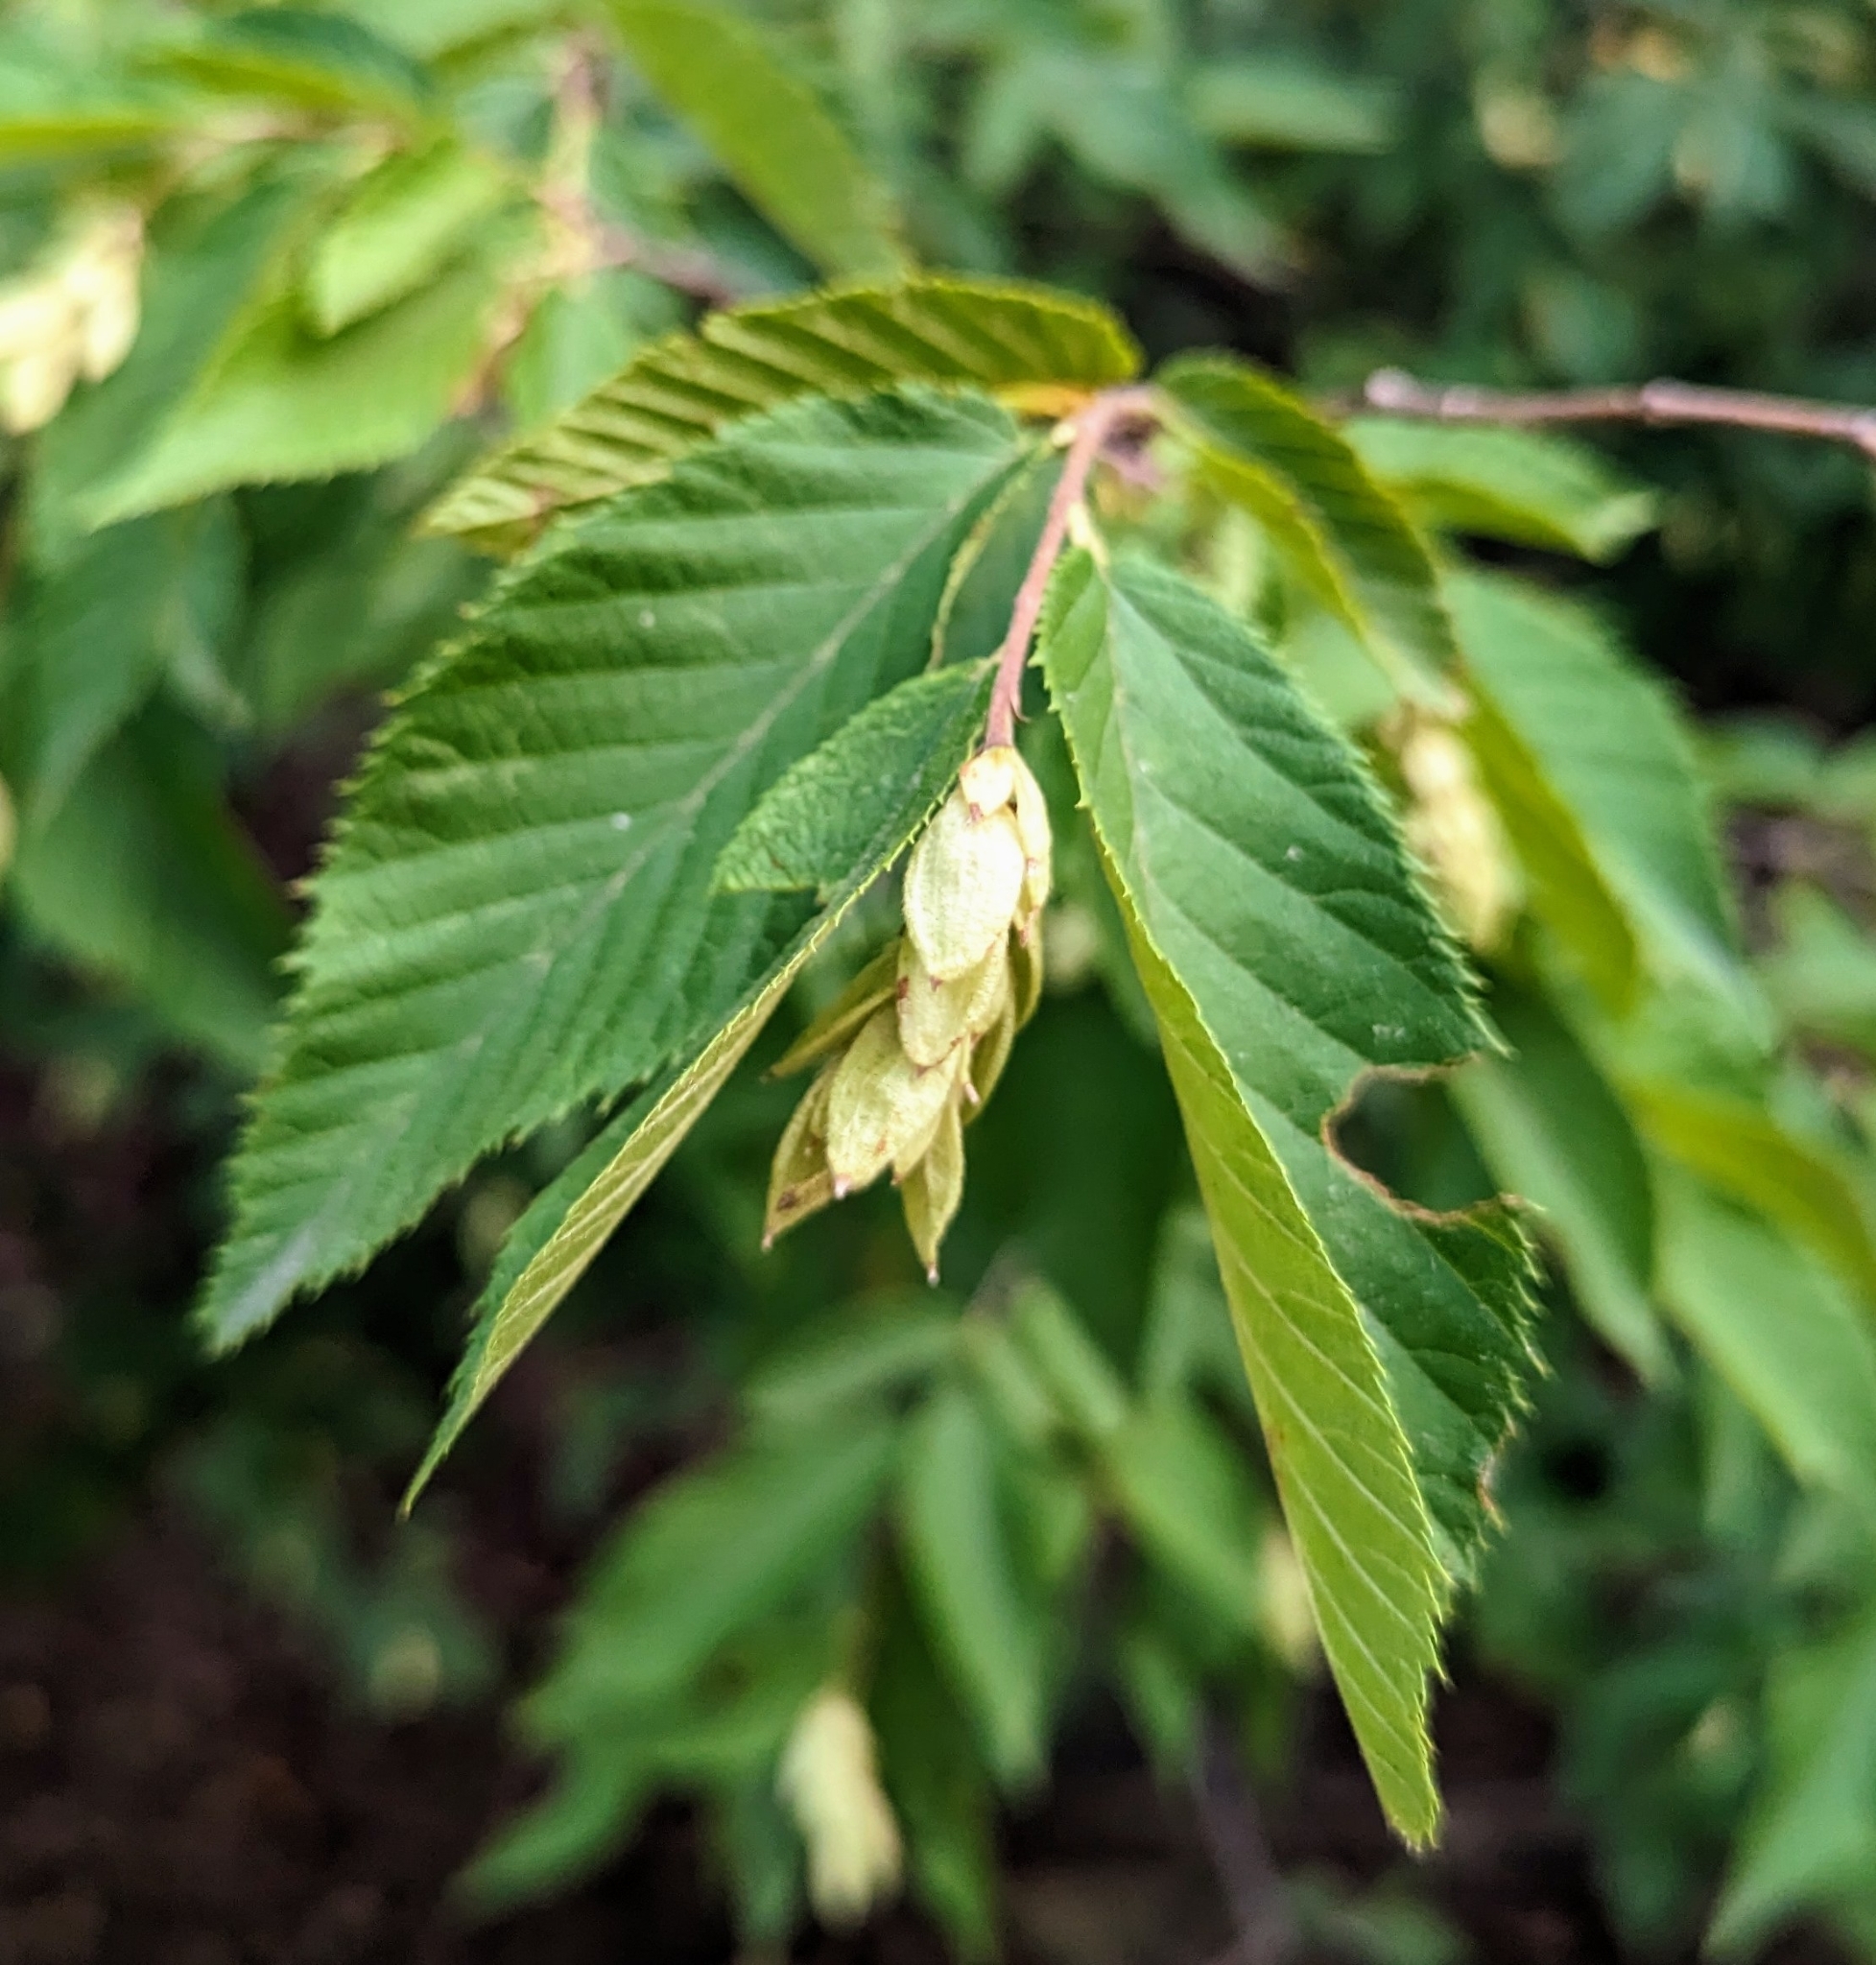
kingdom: Plantae
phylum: Tracheophyta
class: Magnoliopsida
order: Fagales
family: Betulaceae
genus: Ostrya
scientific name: Ostrya virginiana
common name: Ironwood
